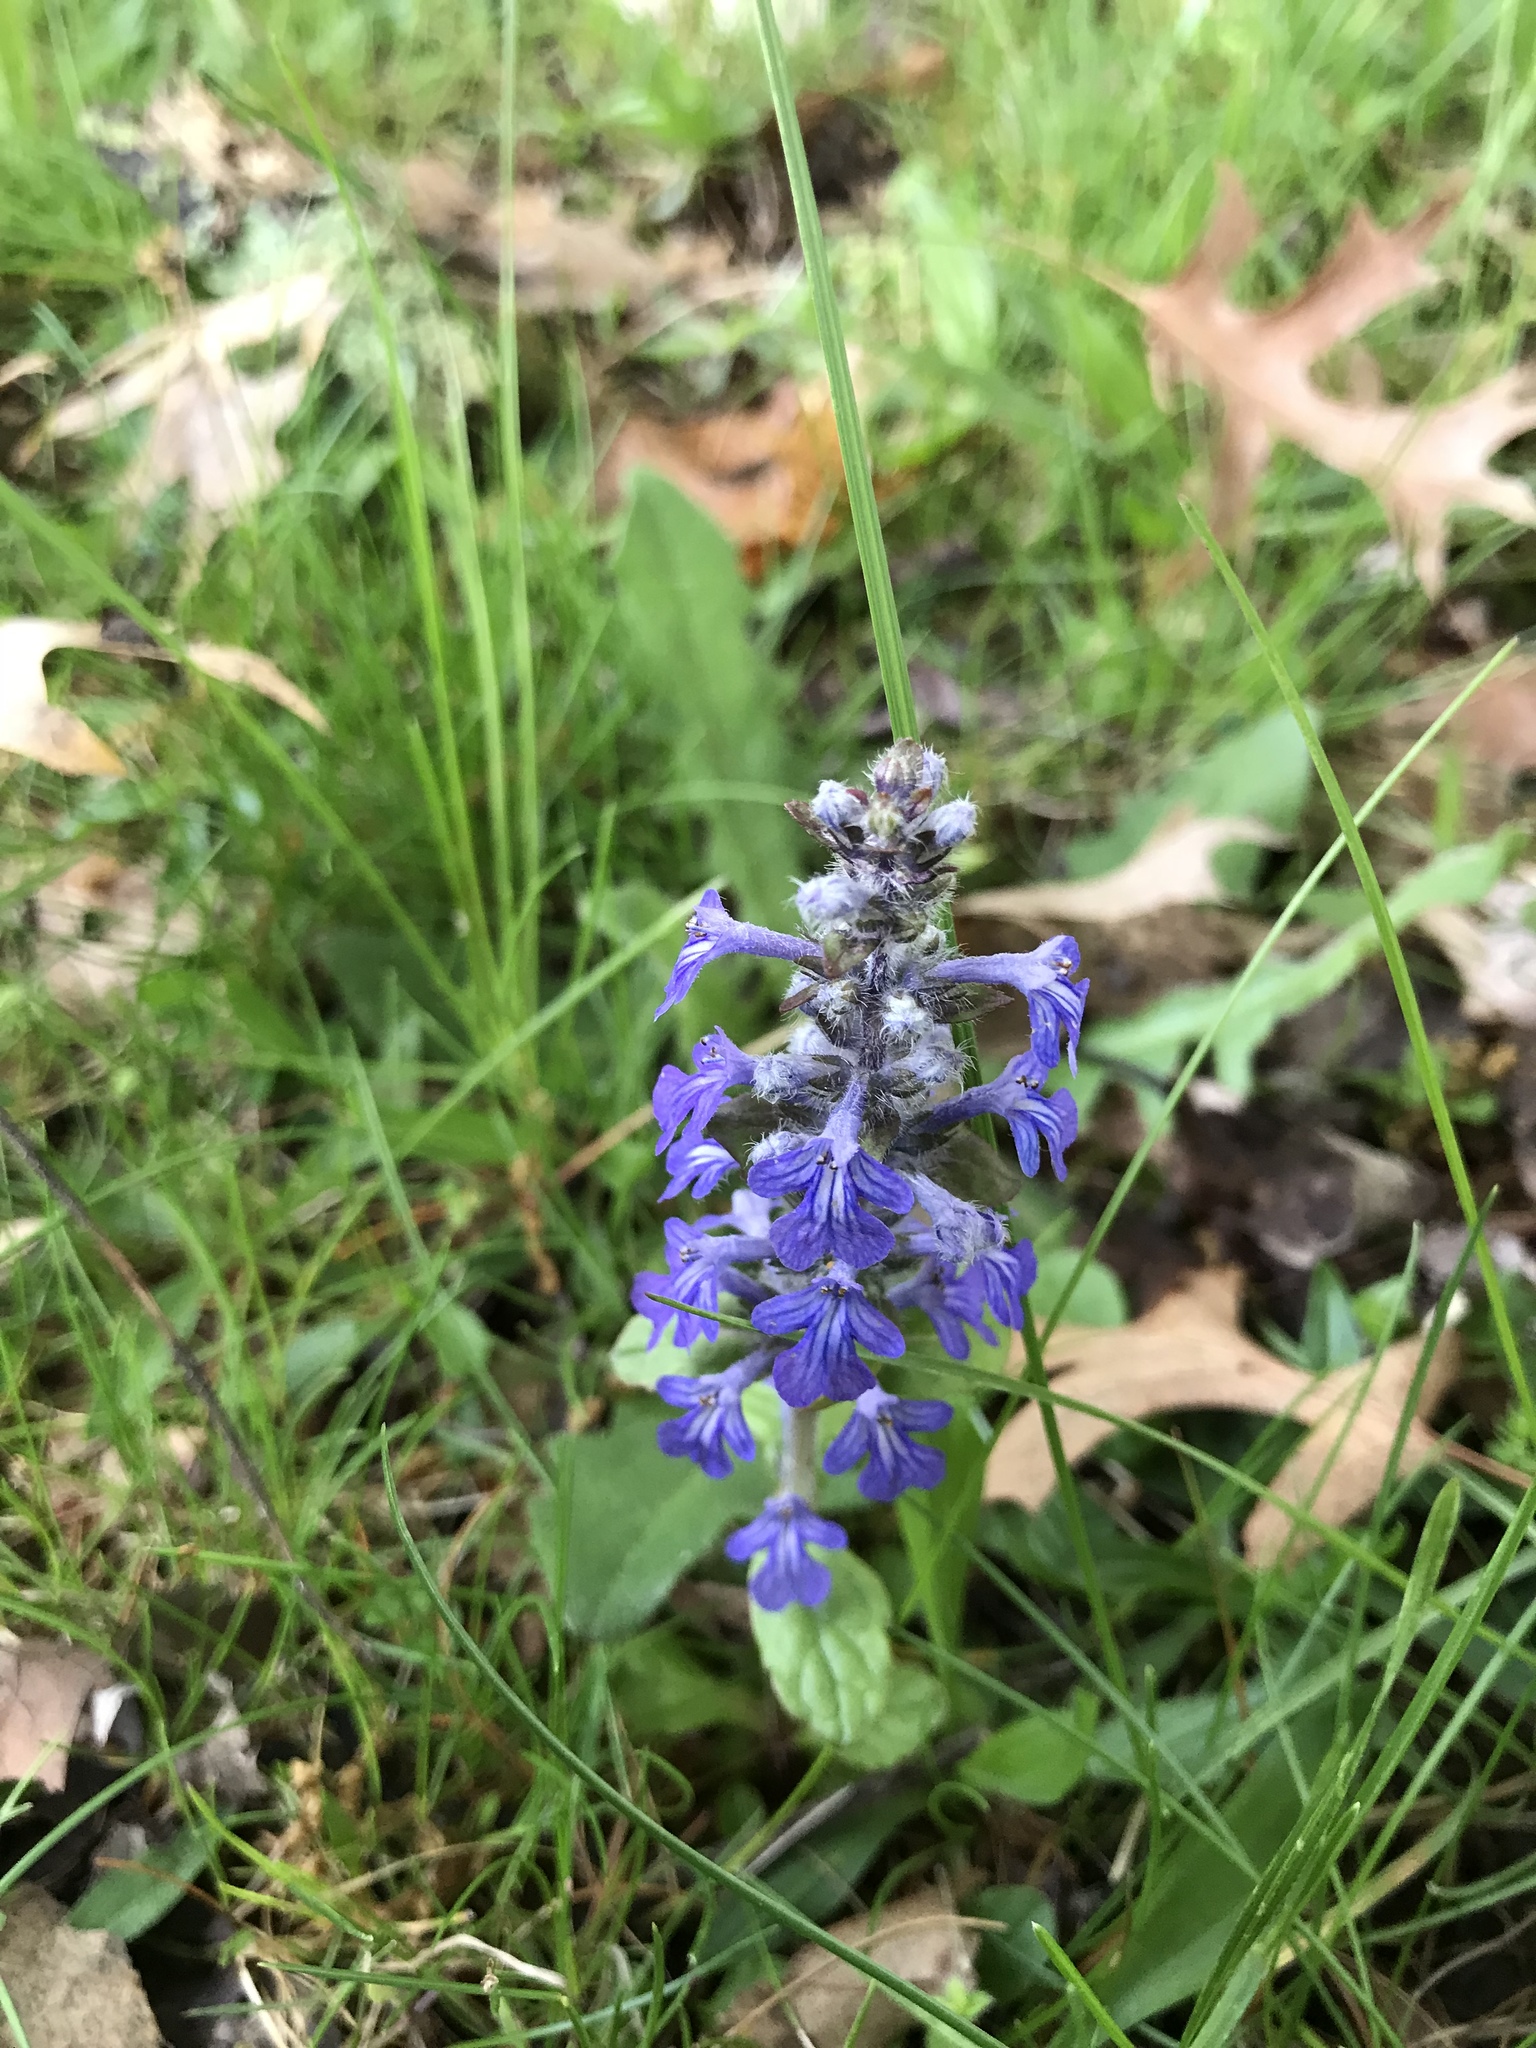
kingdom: Plantae
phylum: Tracheophyta
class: Magnoliopsida
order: Lamiales
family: Lamiaceae
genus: Ajuga
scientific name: Ajuga reptans
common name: Bugle
